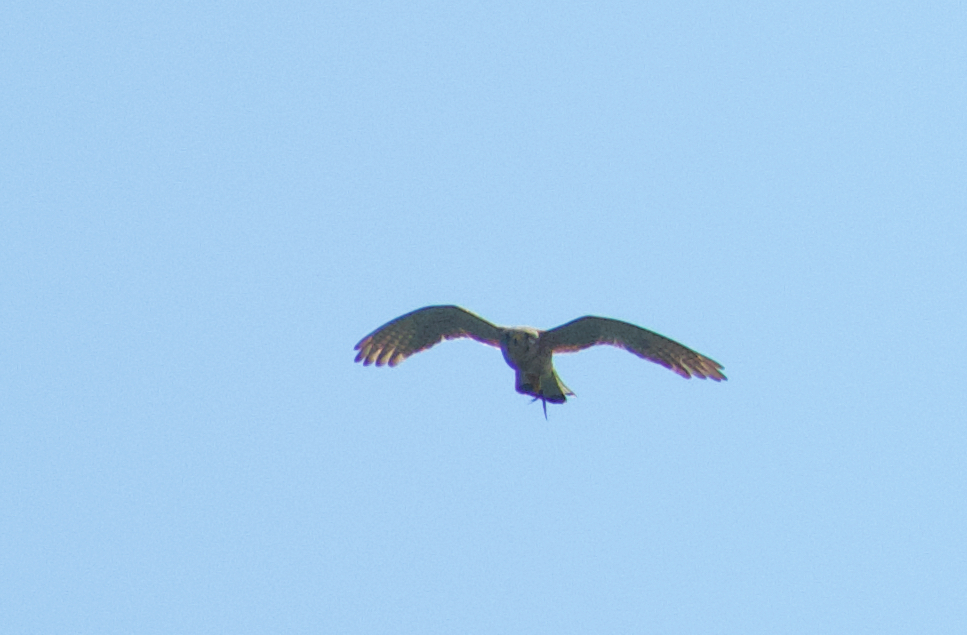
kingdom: Animalia
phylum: Chordata
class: Aves
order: Falconiformes
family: Falconidae
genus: Falco
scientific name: Falco tinnunculus
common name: Common kestrel
